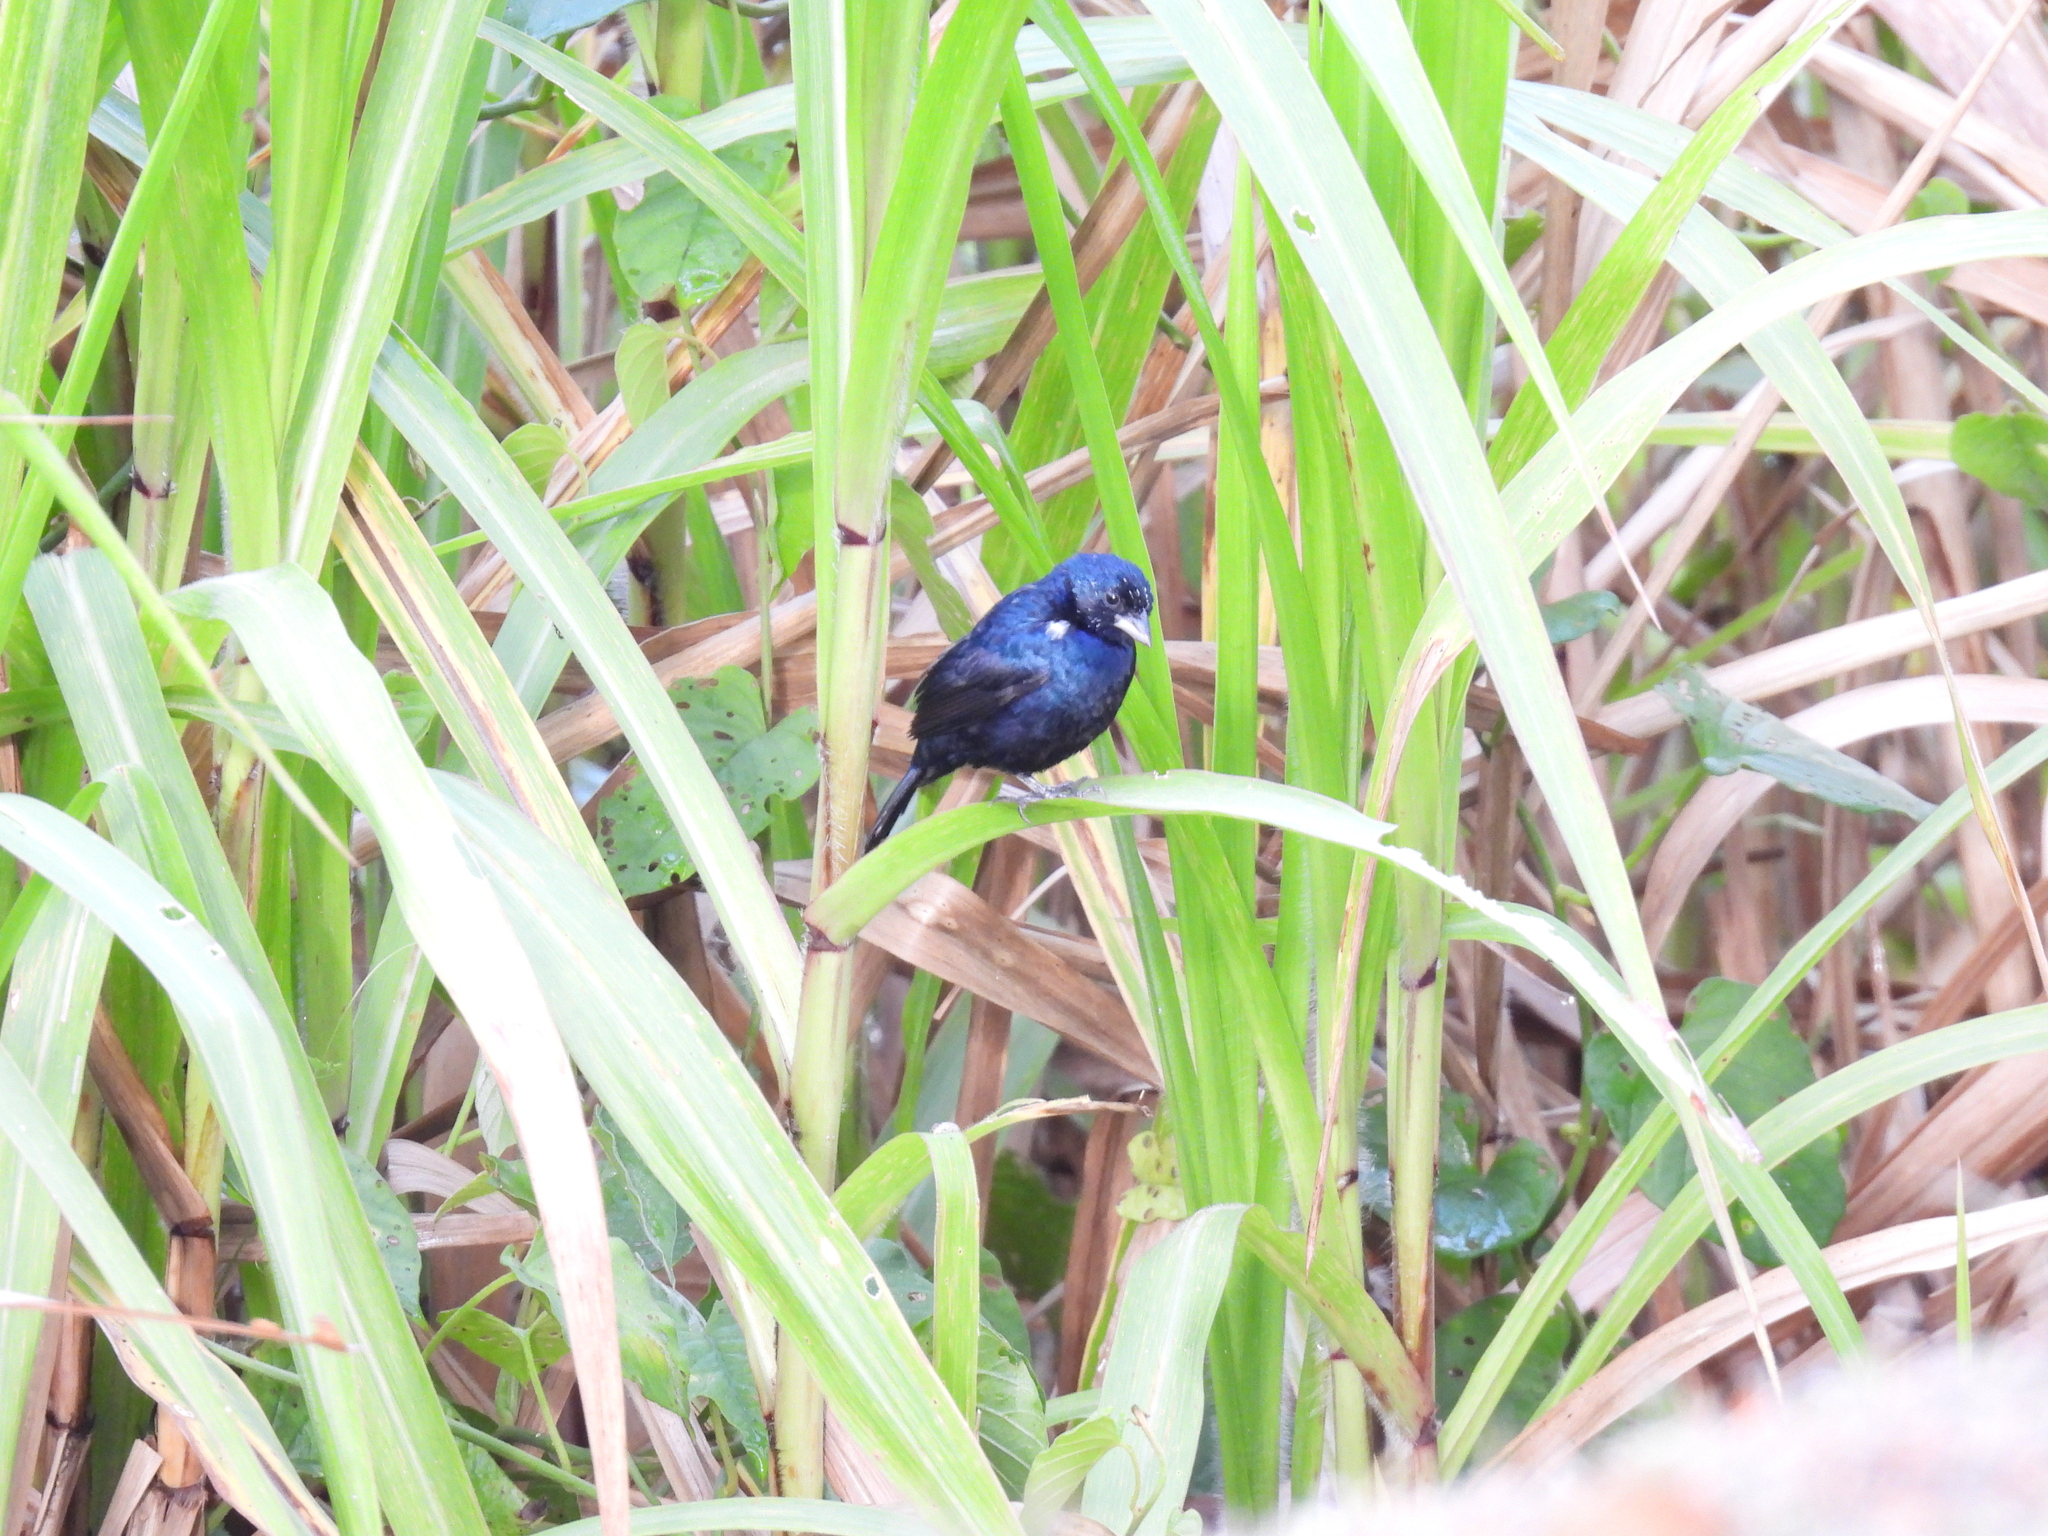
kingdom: Animalia
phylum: Chordata
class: Aves
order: Passeriformes
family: Thraupidae
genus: Volatinia
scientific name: Volatinia jacarina
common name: Blue-black grassquit
